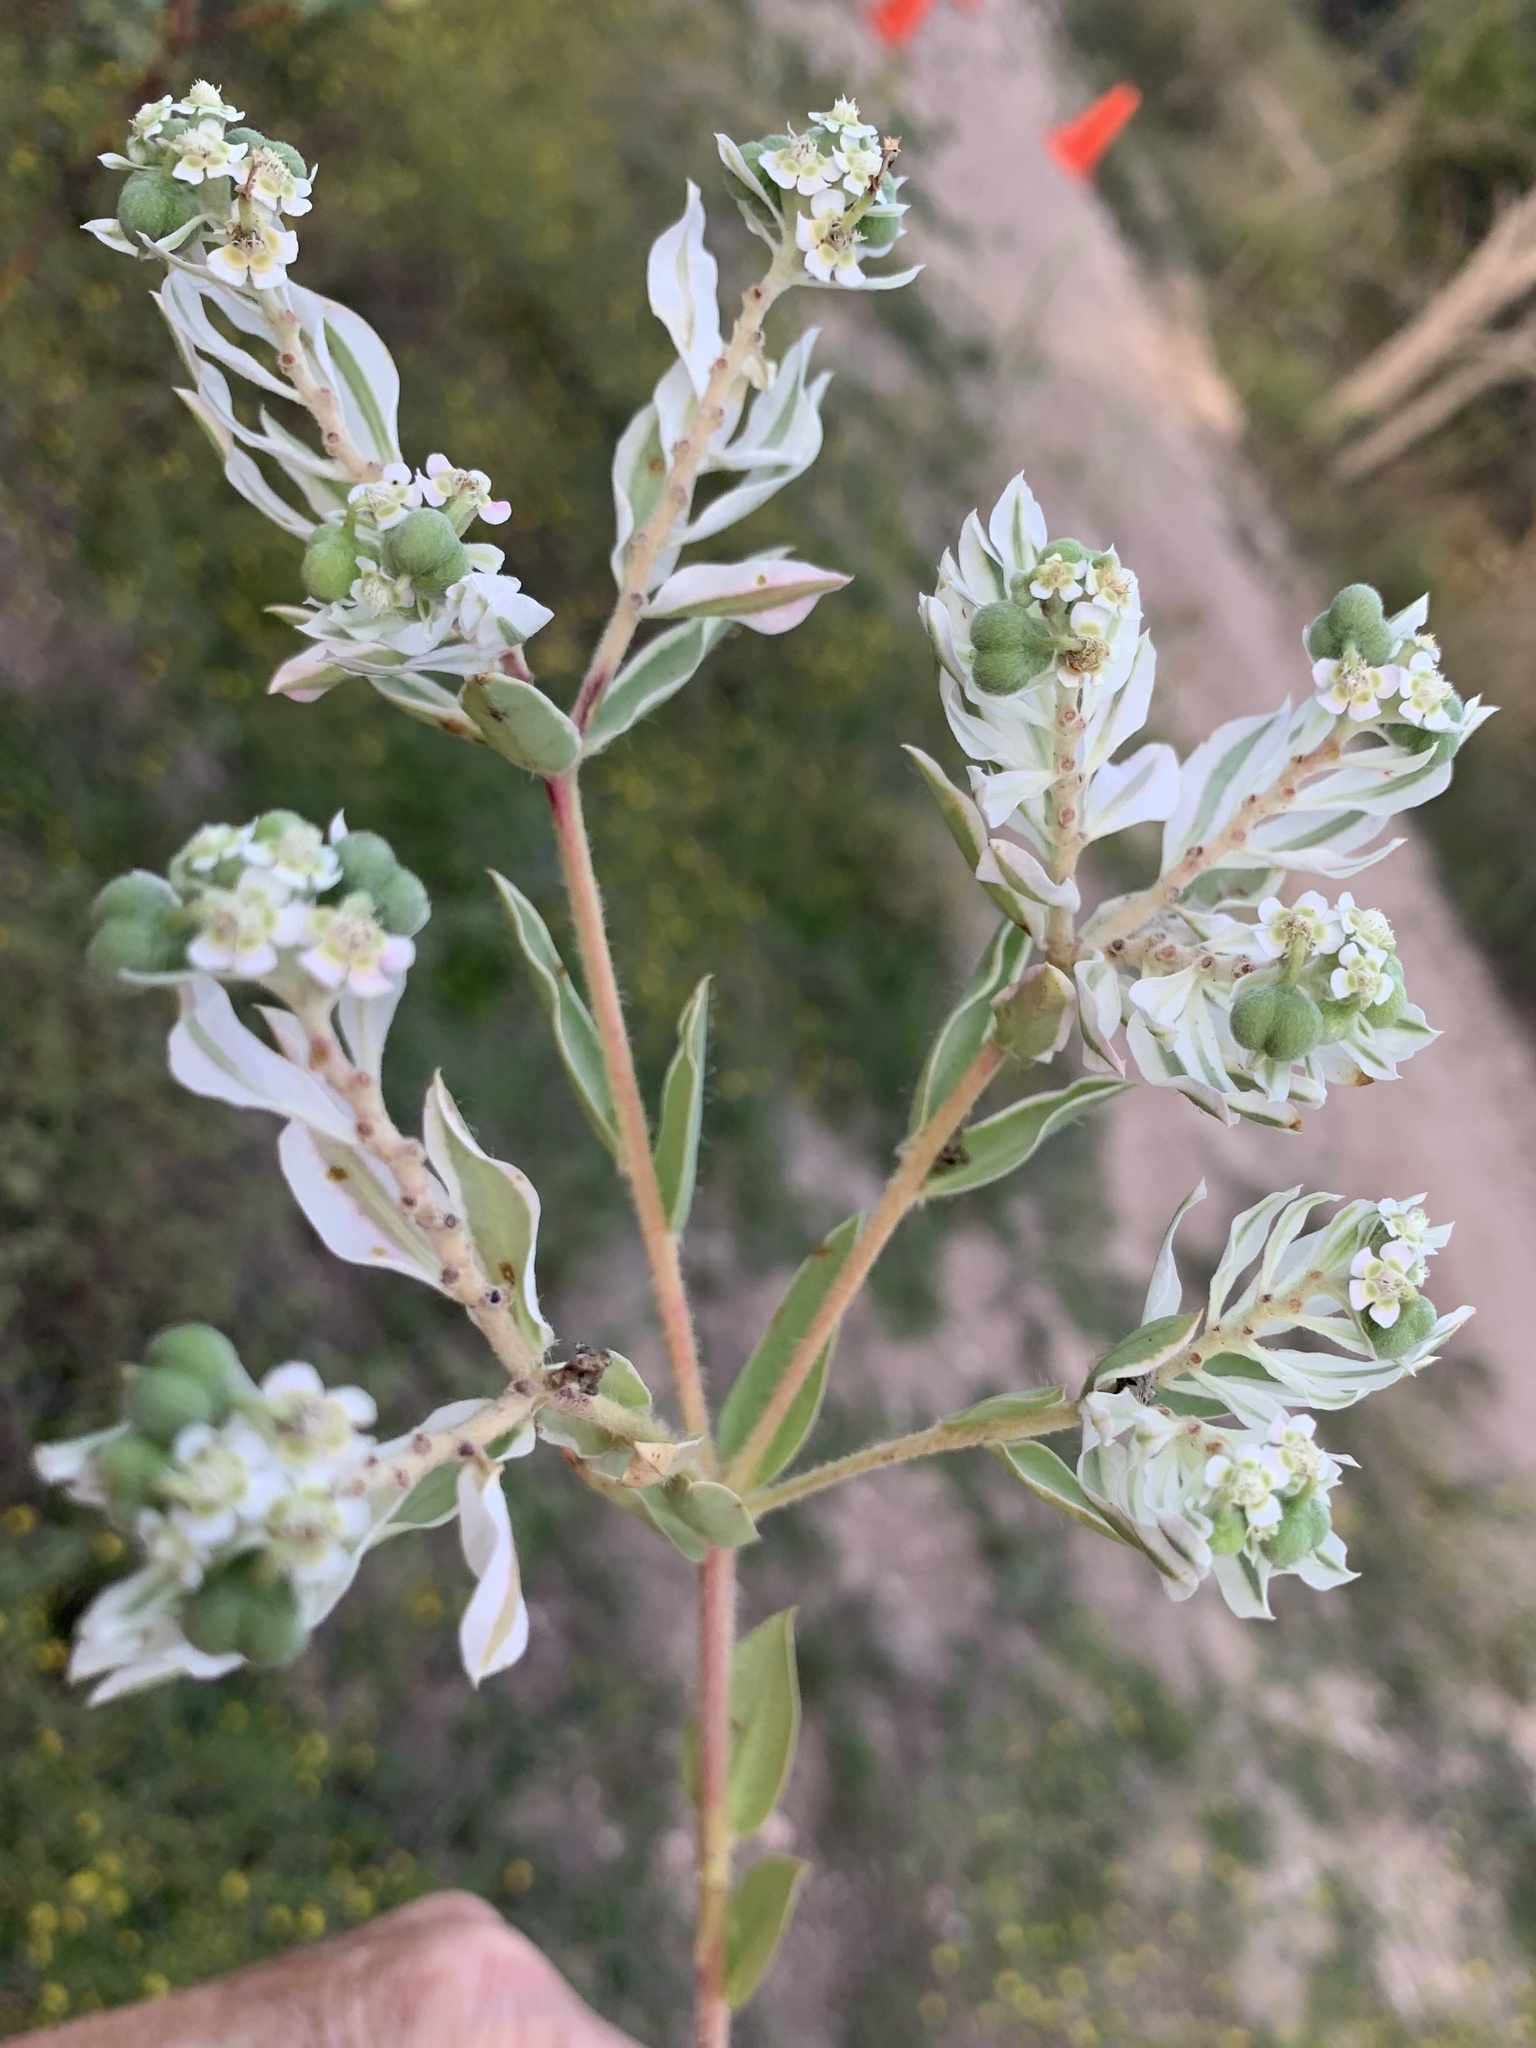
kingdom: Plantae
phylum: Tracheophyta
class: Magnoliopsida
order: Malpighiales
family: Euphorbiaceae
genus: Euphorbia
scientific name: Euphorbia marginata
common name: Ghostweed
